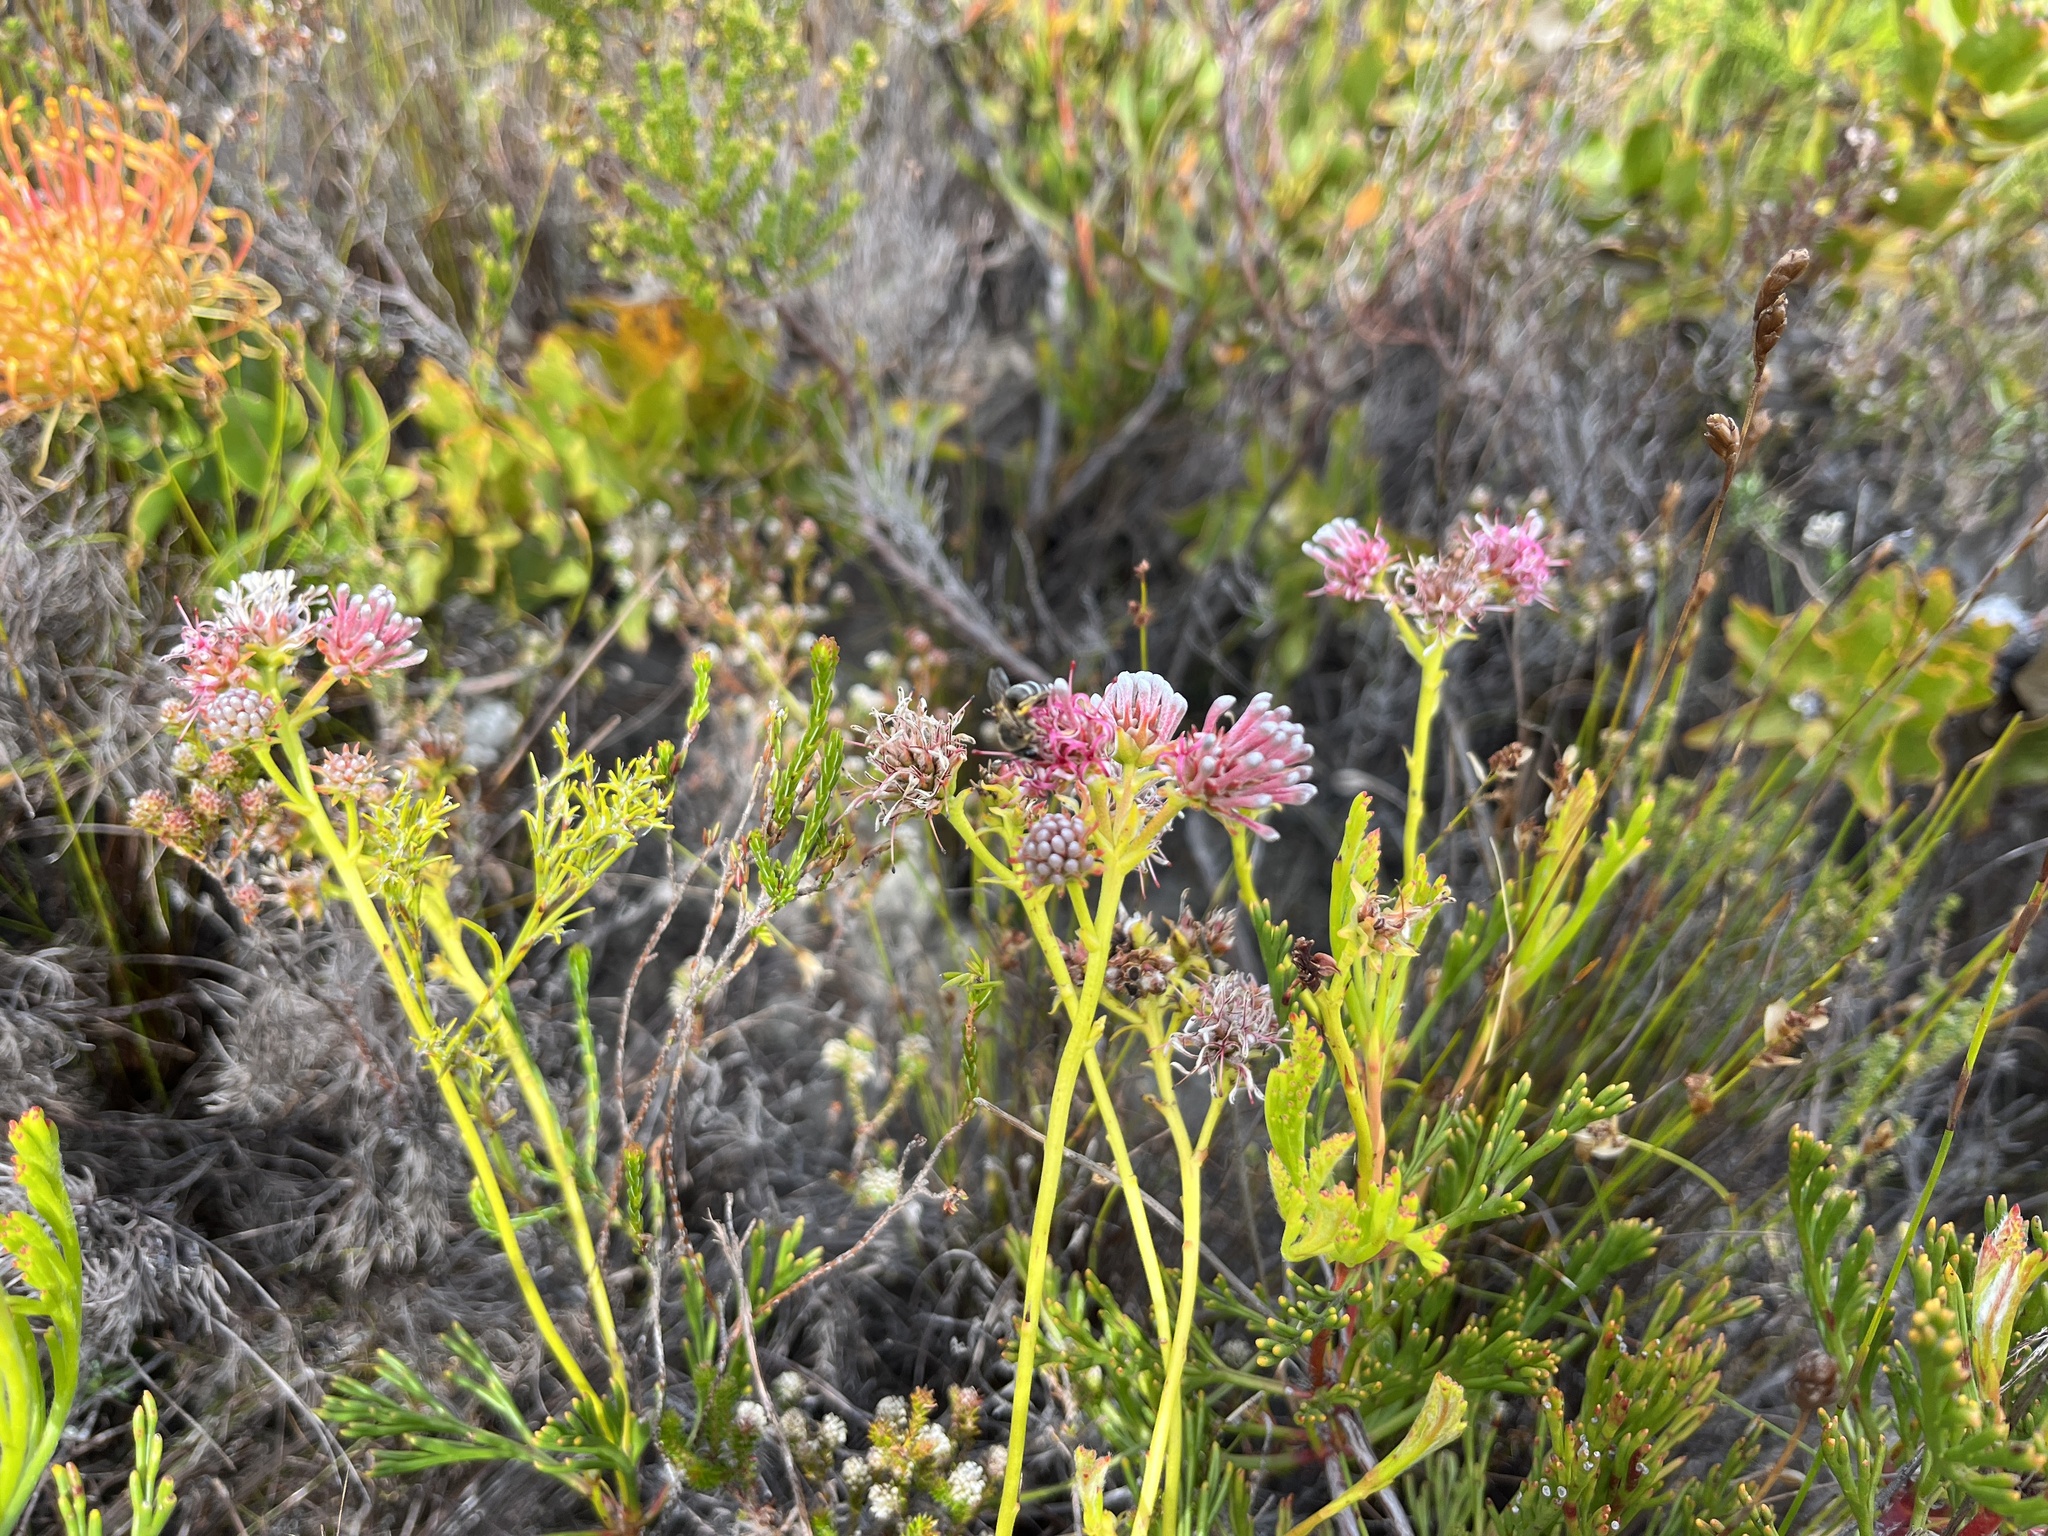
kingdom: Plantae
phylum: Tracheophyta
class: Magnoliopsida
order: Proteales
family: Proteaceae
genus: Serruria
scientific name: Serruria elongata
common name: Long-stalk spiderhead
